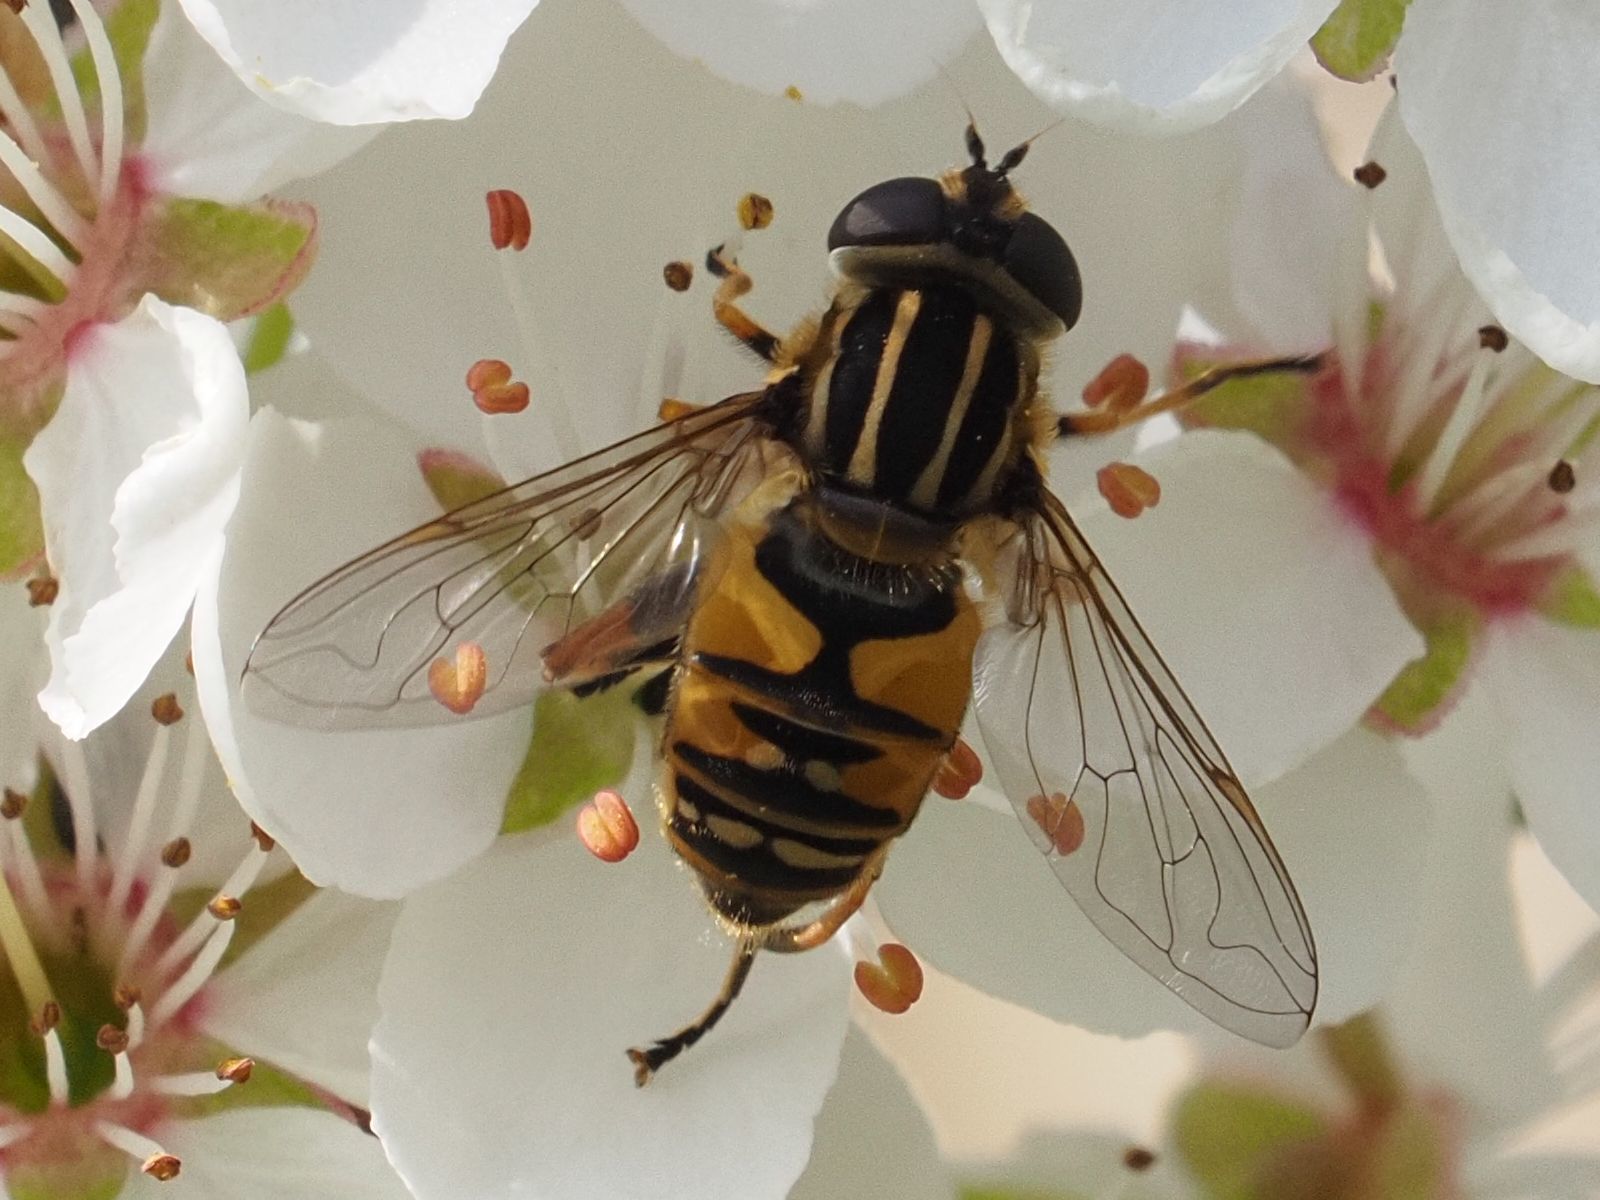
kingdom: Animalia
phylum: Arthropoda
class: Insecta
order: Diptera
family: Syrphidae
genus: Helophilus
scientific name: Helophilus pendulus
